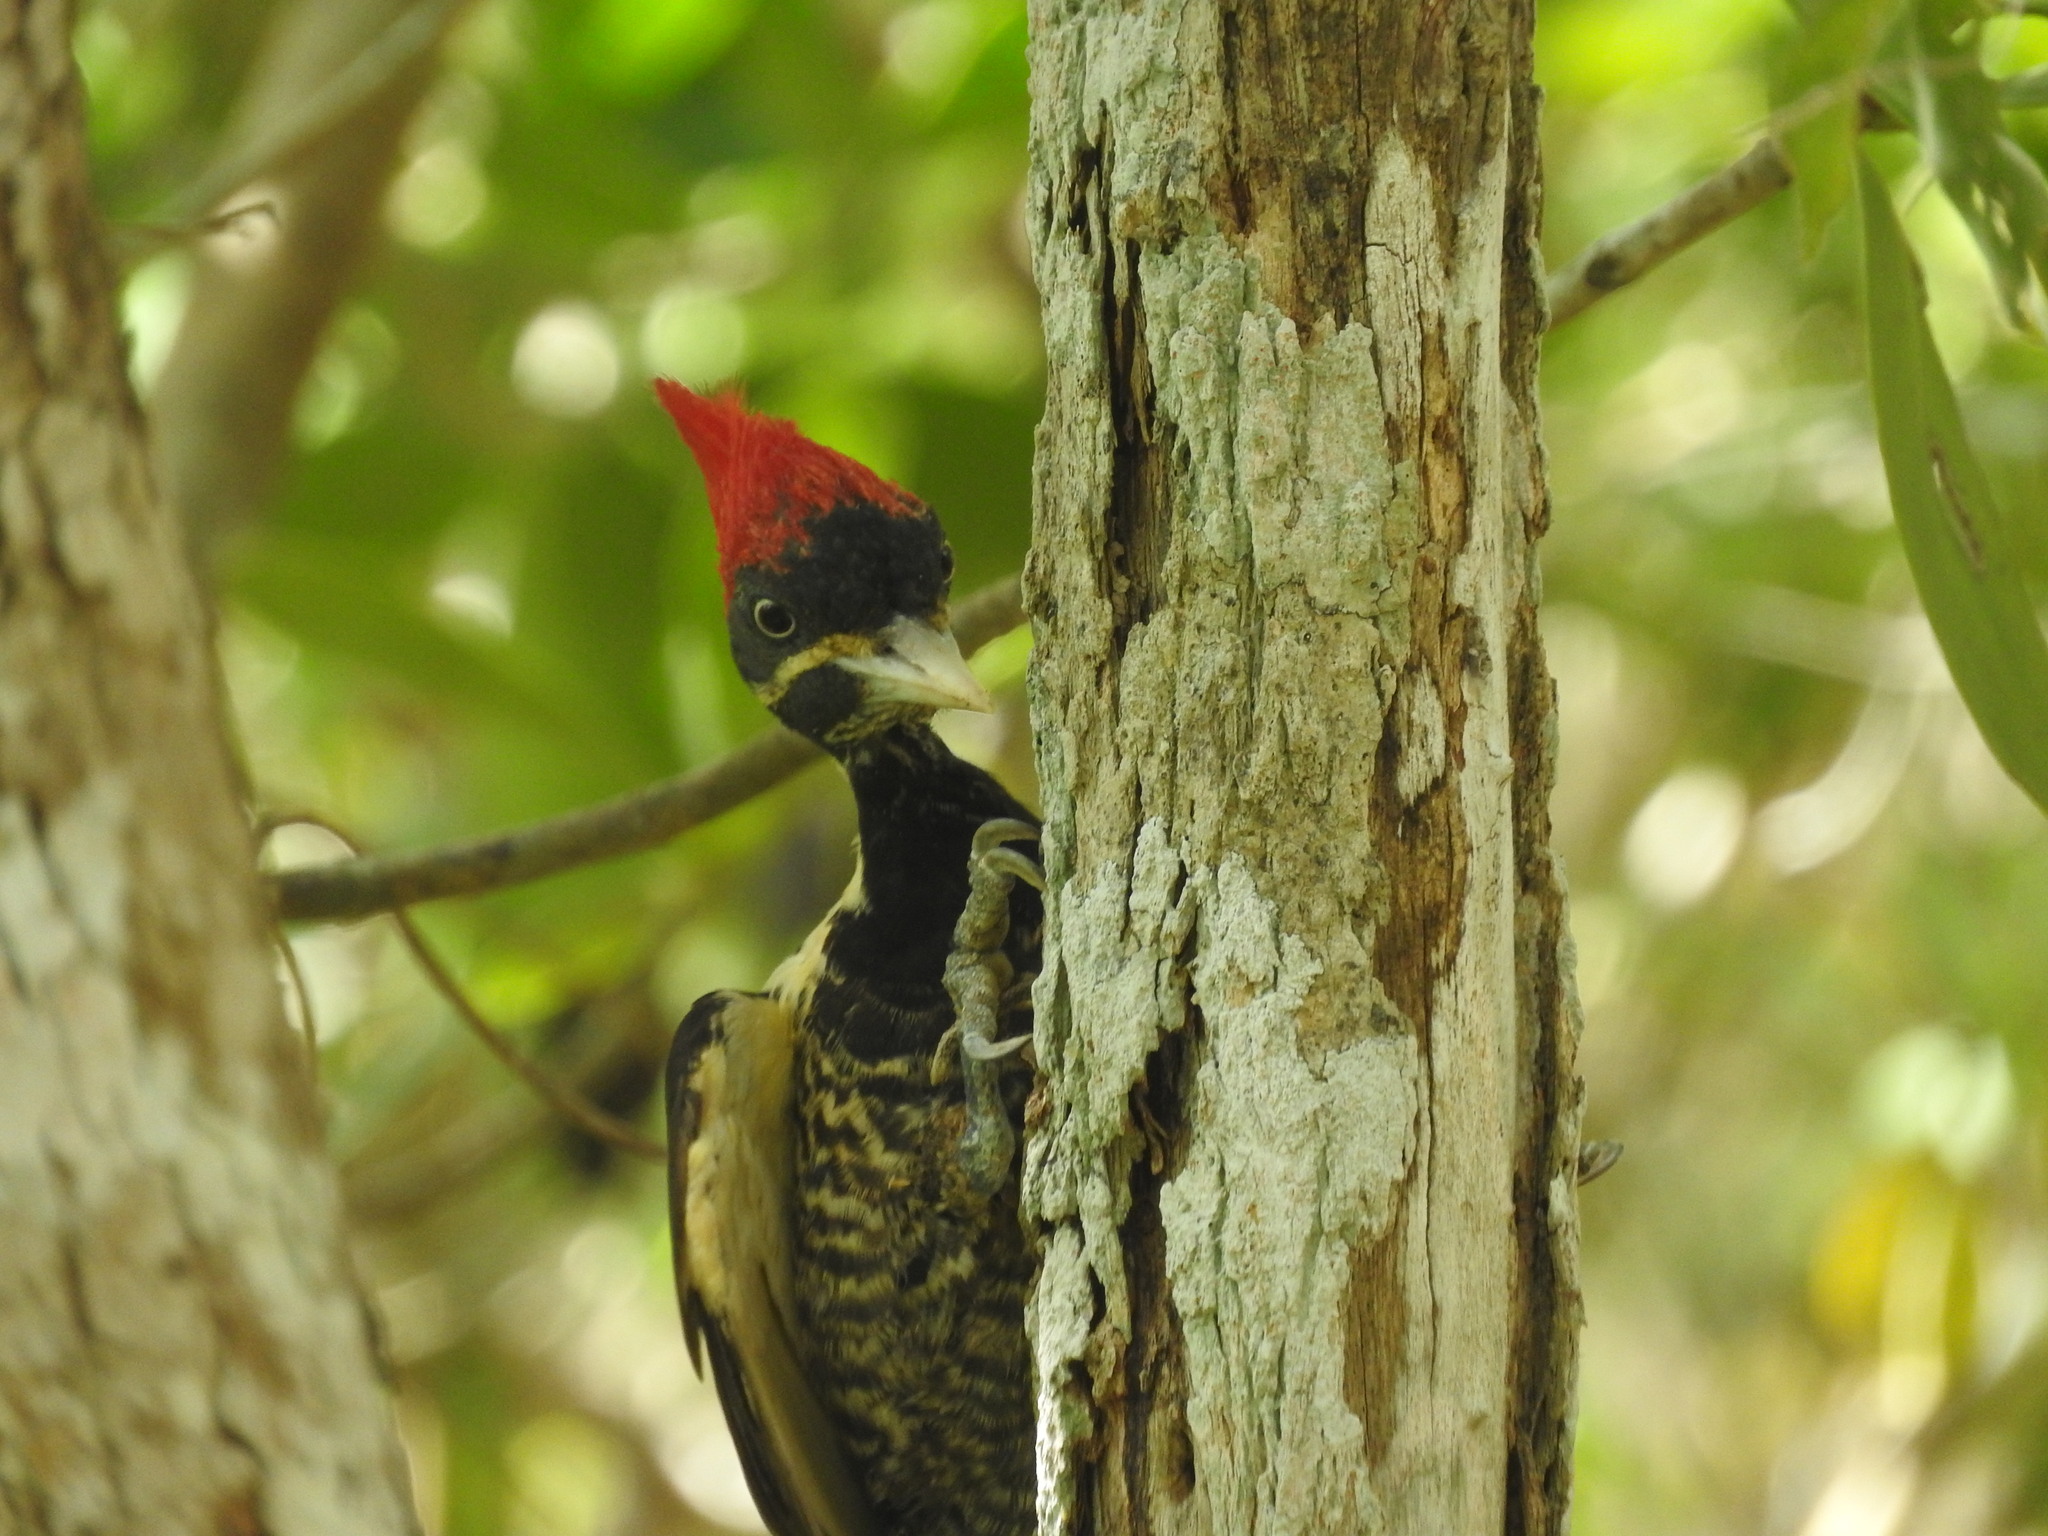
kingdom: Animalia
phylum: Chordata
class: Aves
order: Piciformes
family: Picidae
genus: Dryocopus
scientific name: Dryocopus lineatus
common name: Lineated woodpecker
